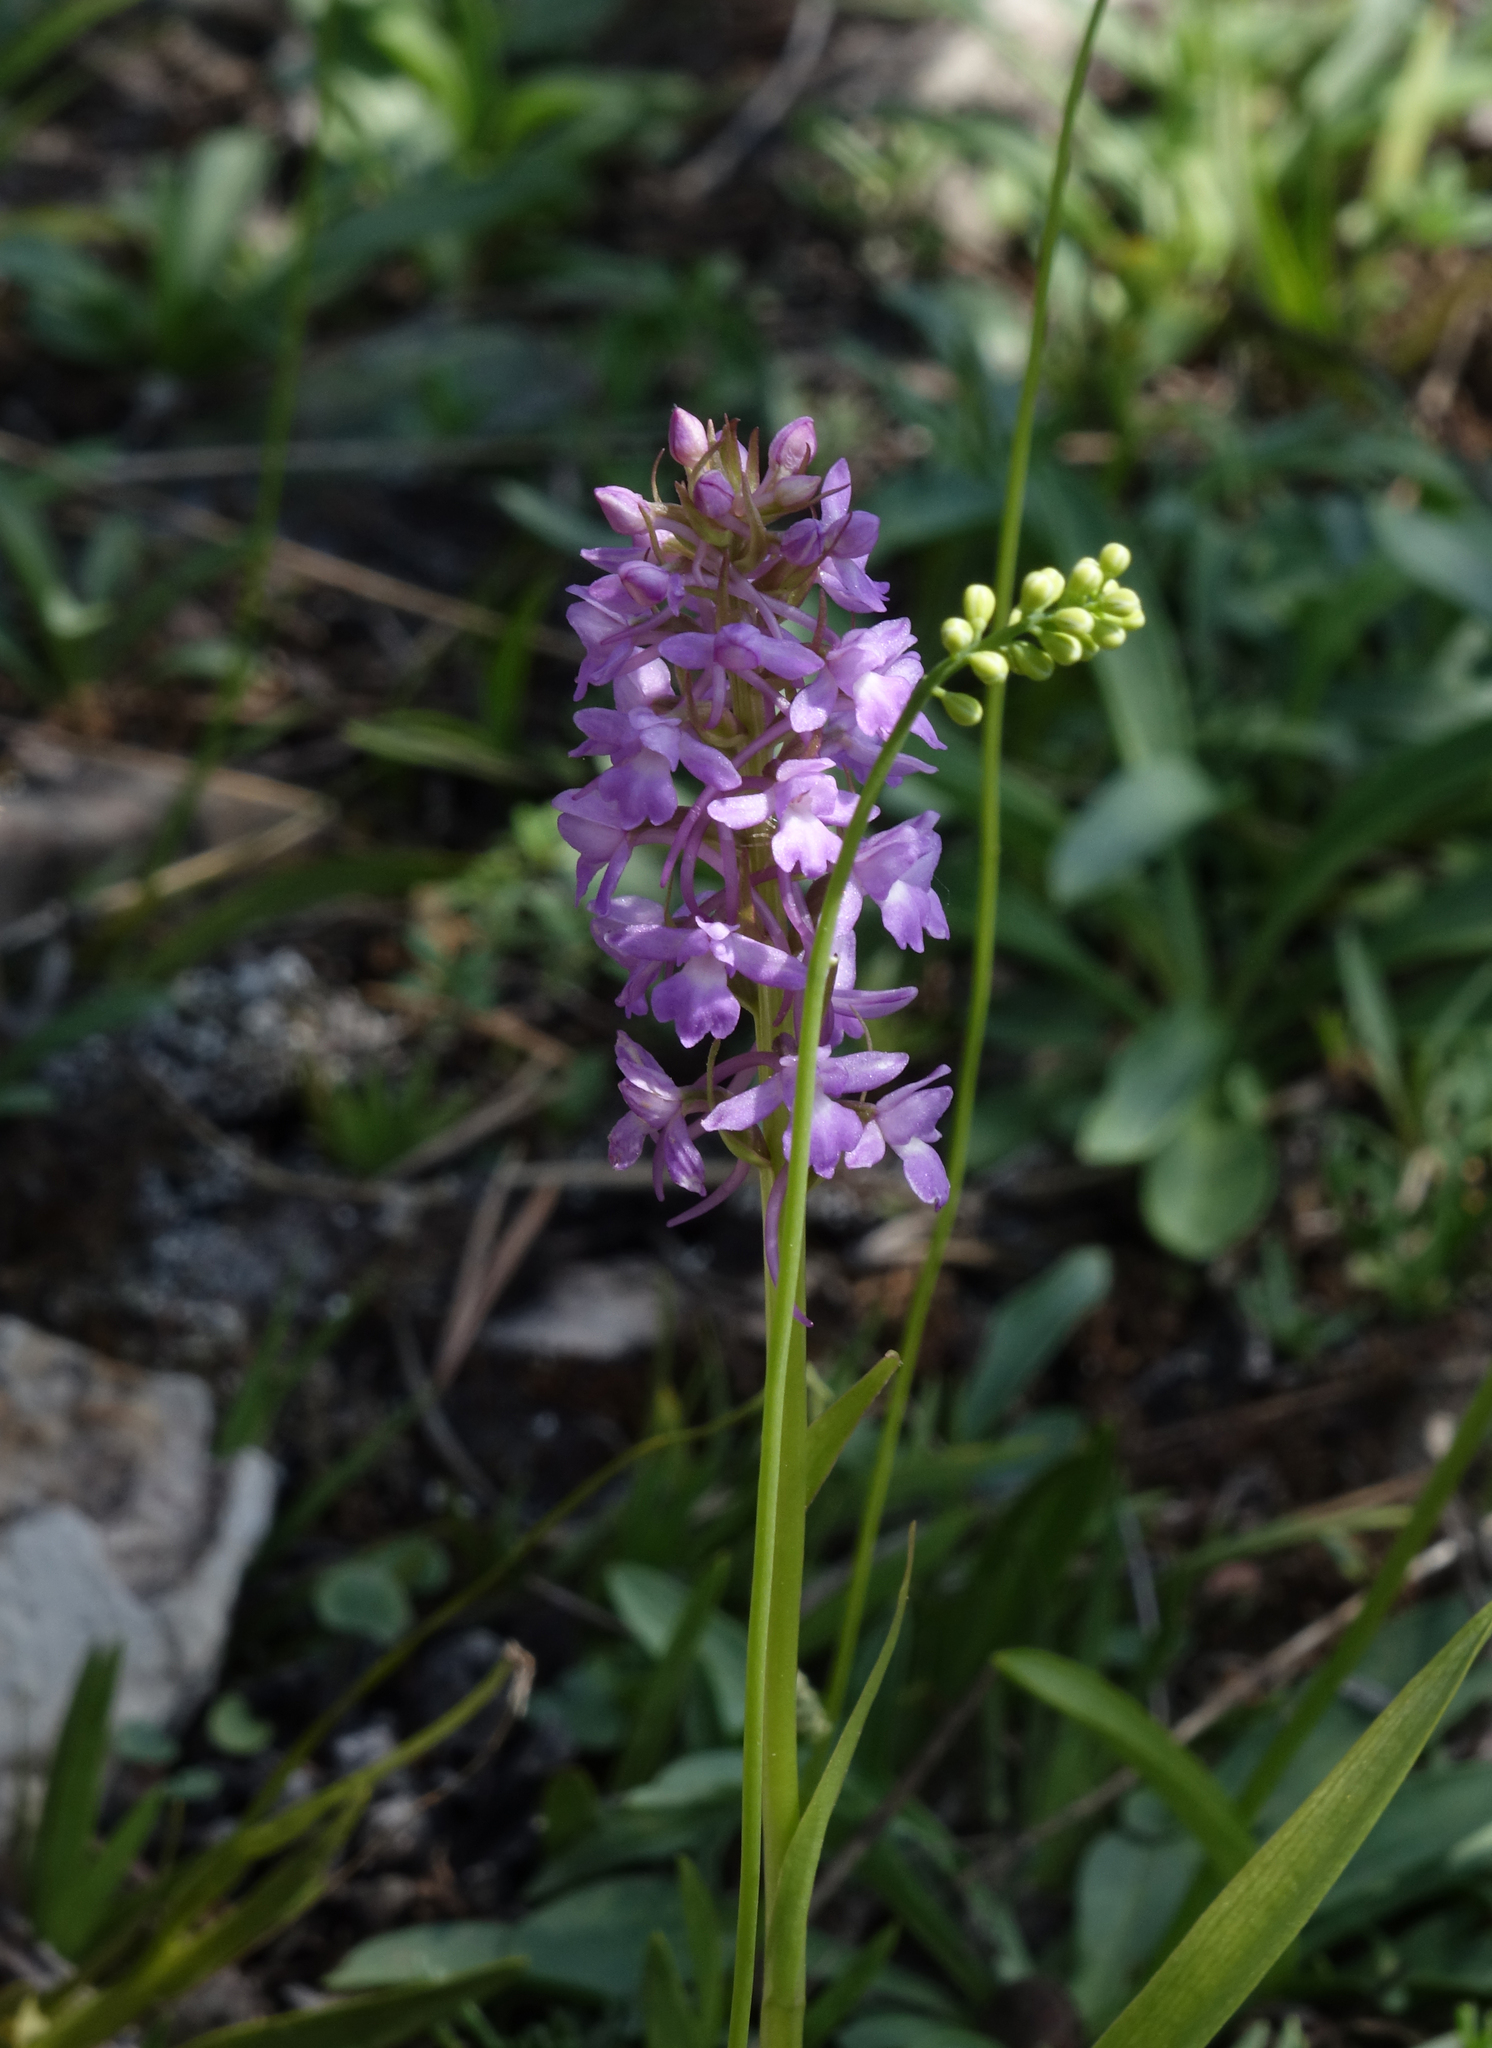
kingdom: Plantae
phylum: Tracheophyta
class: Liliopsida
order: Asparagales
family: Orchidaceae
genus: Gymnadenia
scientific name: Gymnadenia conopsea
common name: Fragrant orchid
